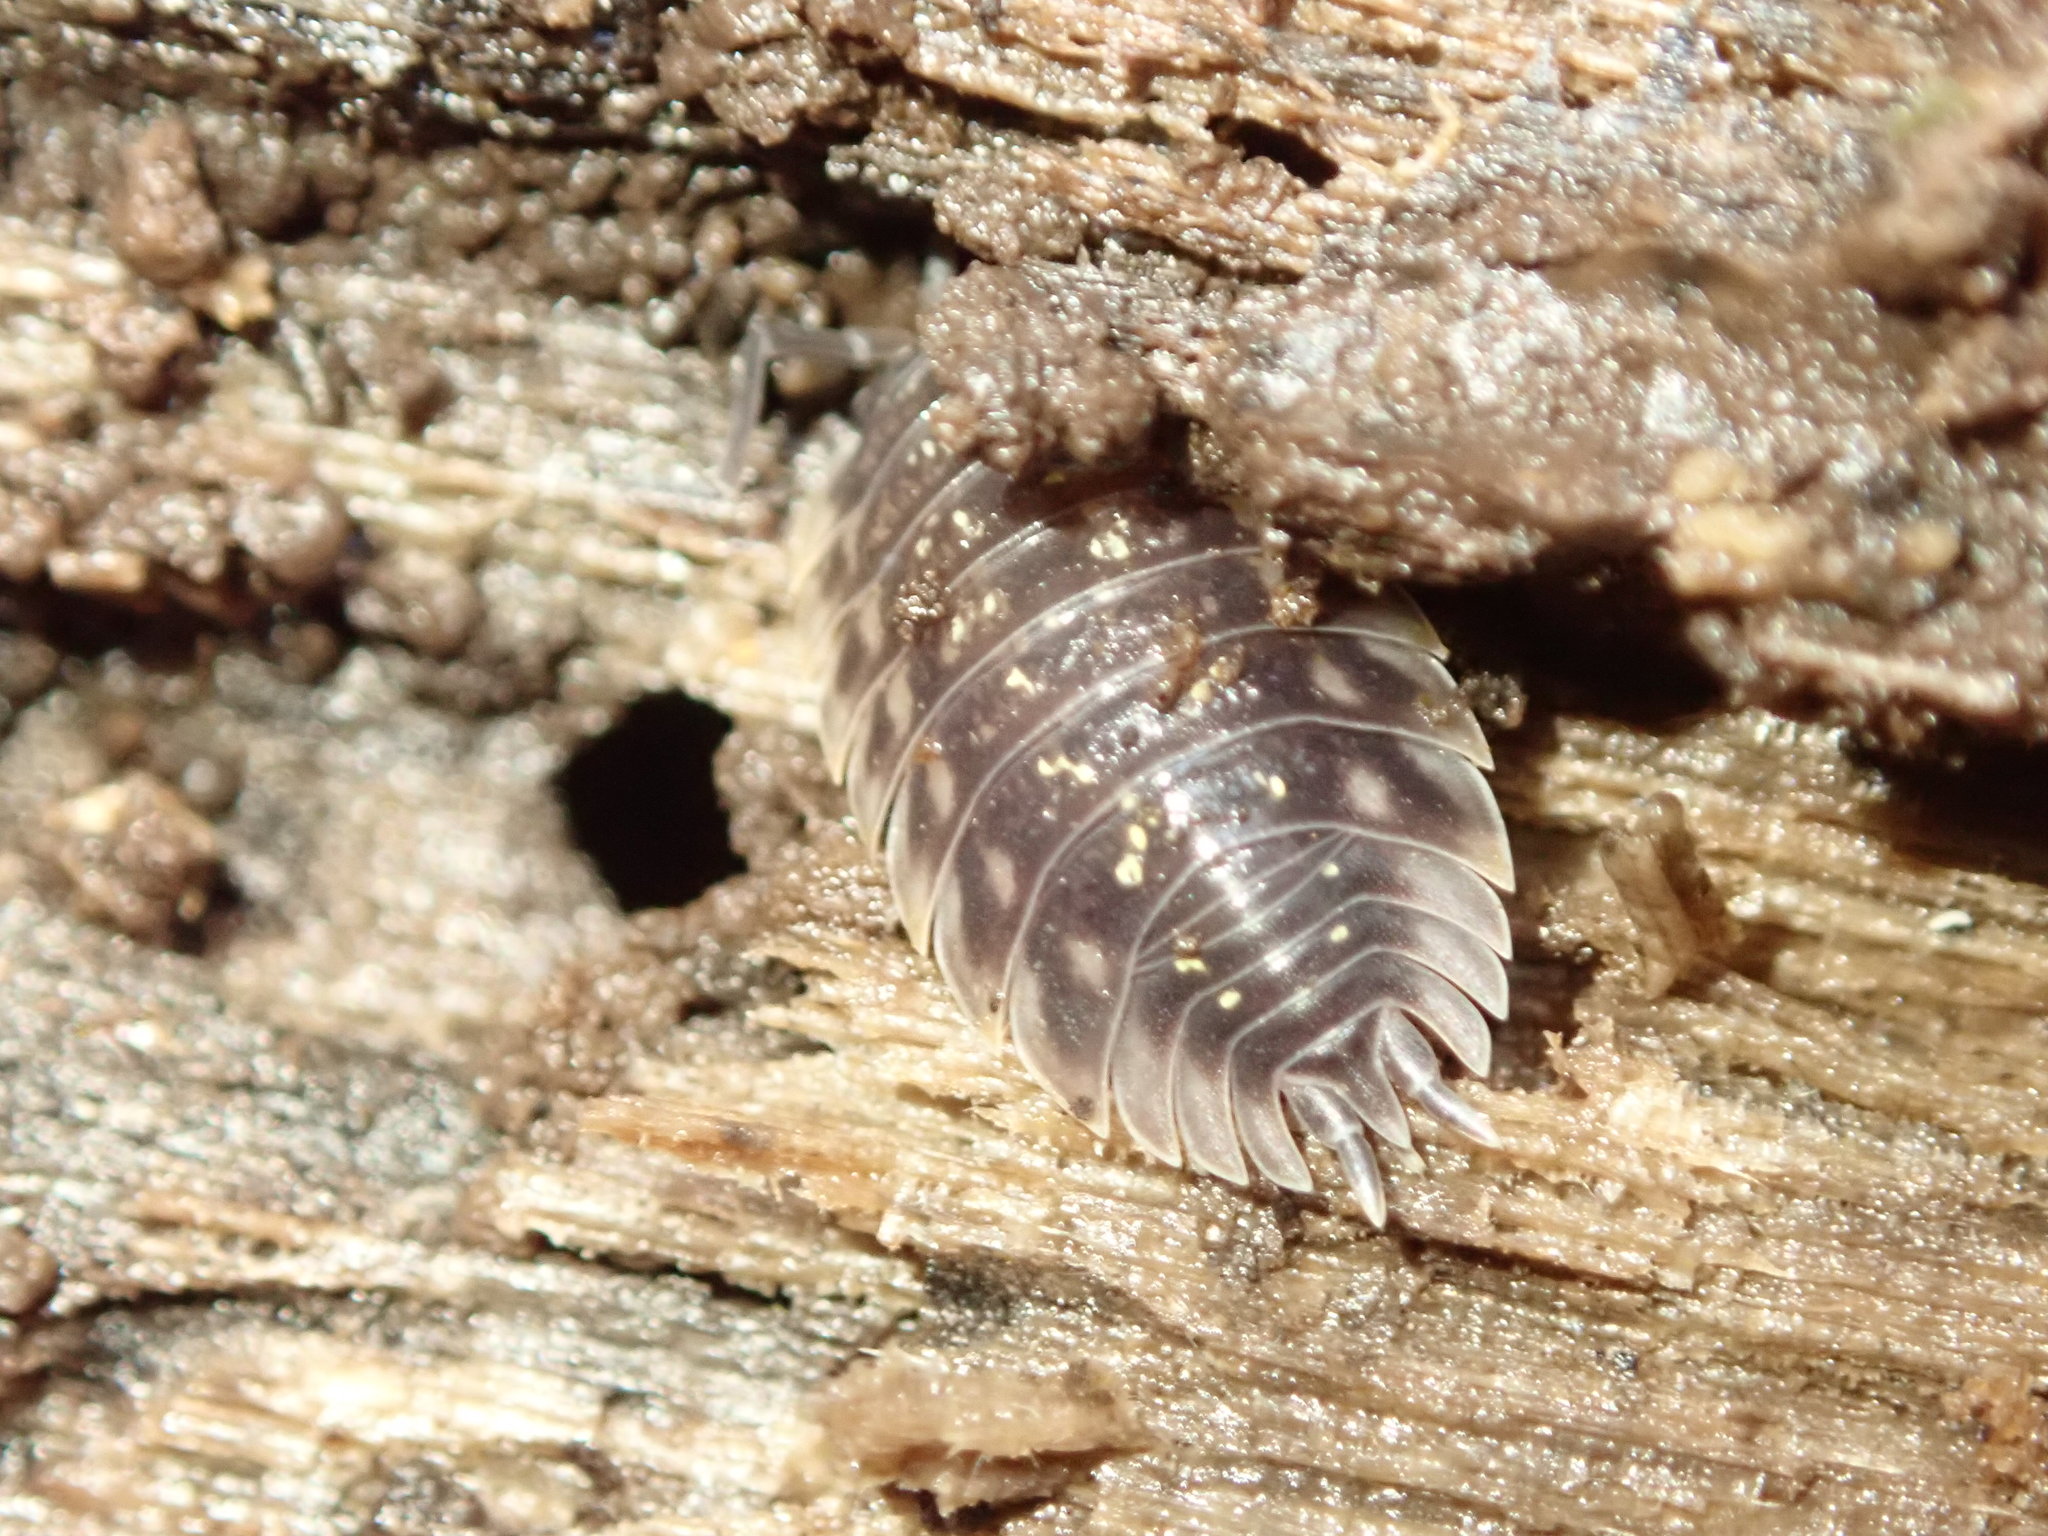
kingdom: Animalia
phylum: Arthropoda
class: Malacostraca
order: Isopoda
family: Oniscidae
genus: Oniscus
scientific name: Oniscus asellus
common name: Common shiny woodlouse
